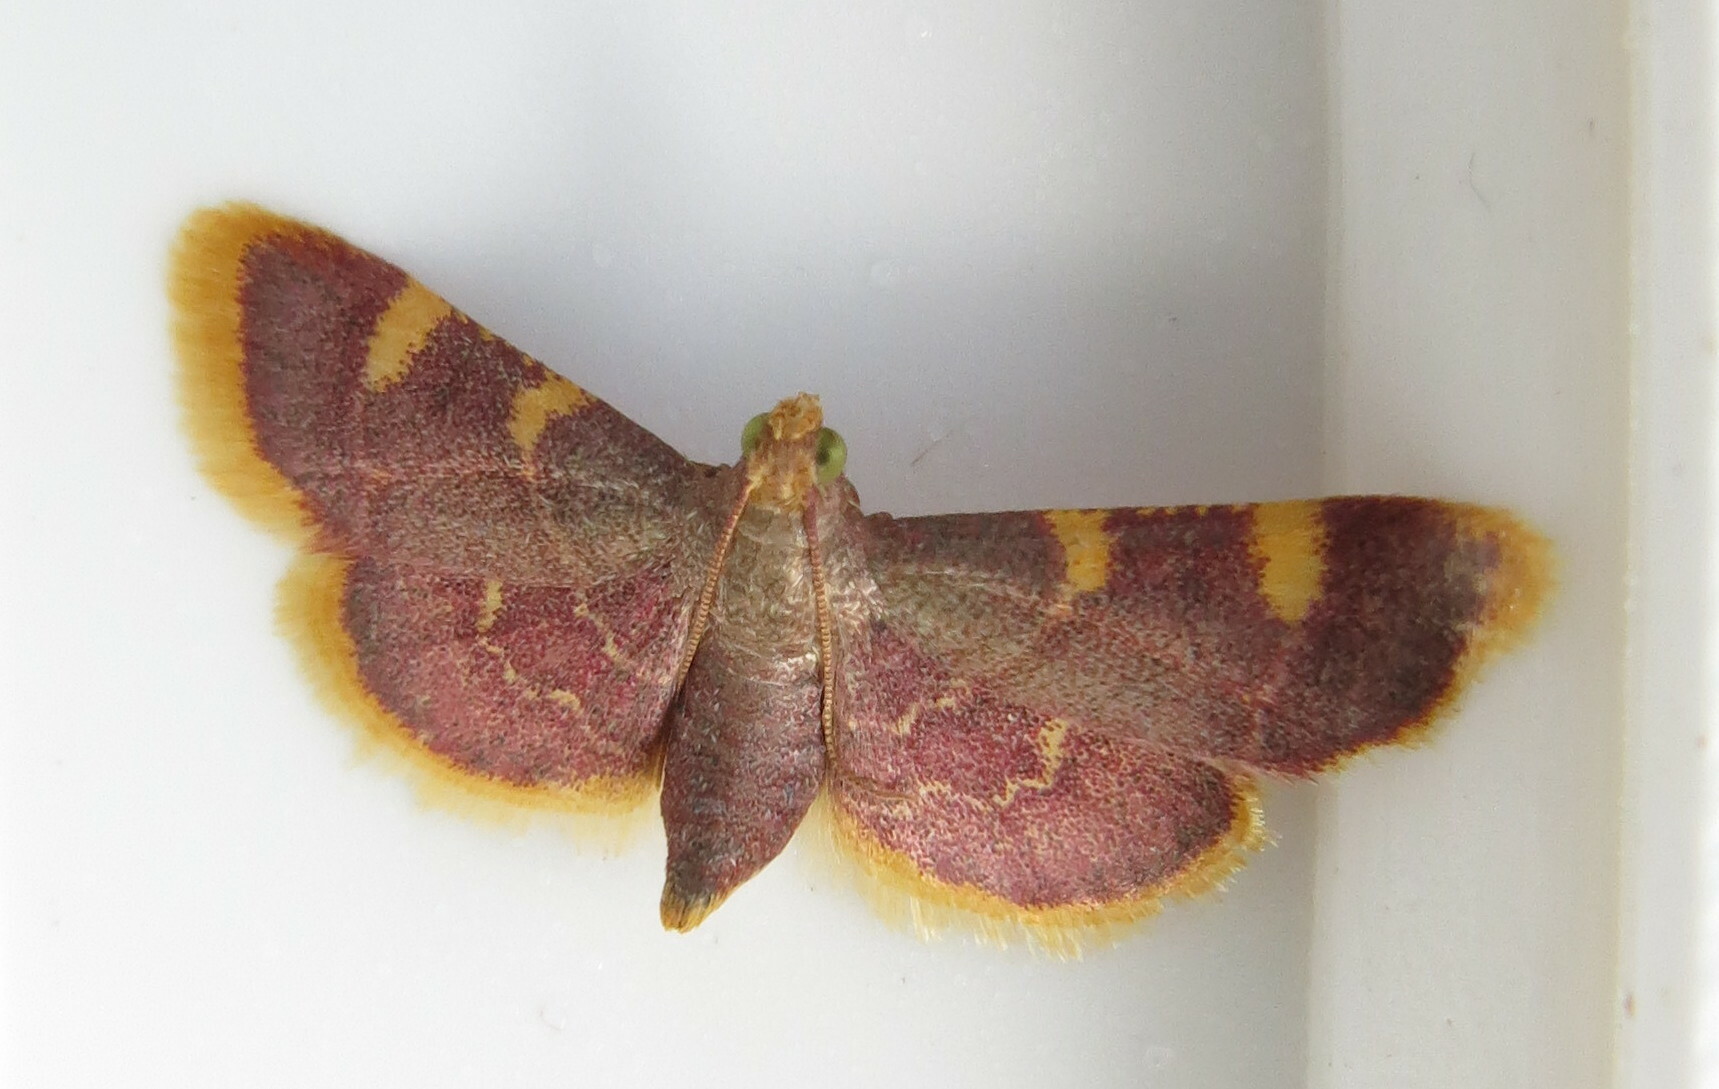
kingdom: Animalia
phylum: Arthropoda
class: Insecta
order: Lepidoptera
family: Pyralidae
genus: Hypsopygia
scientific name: Hypsopygia costalis
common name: Gold triangle
